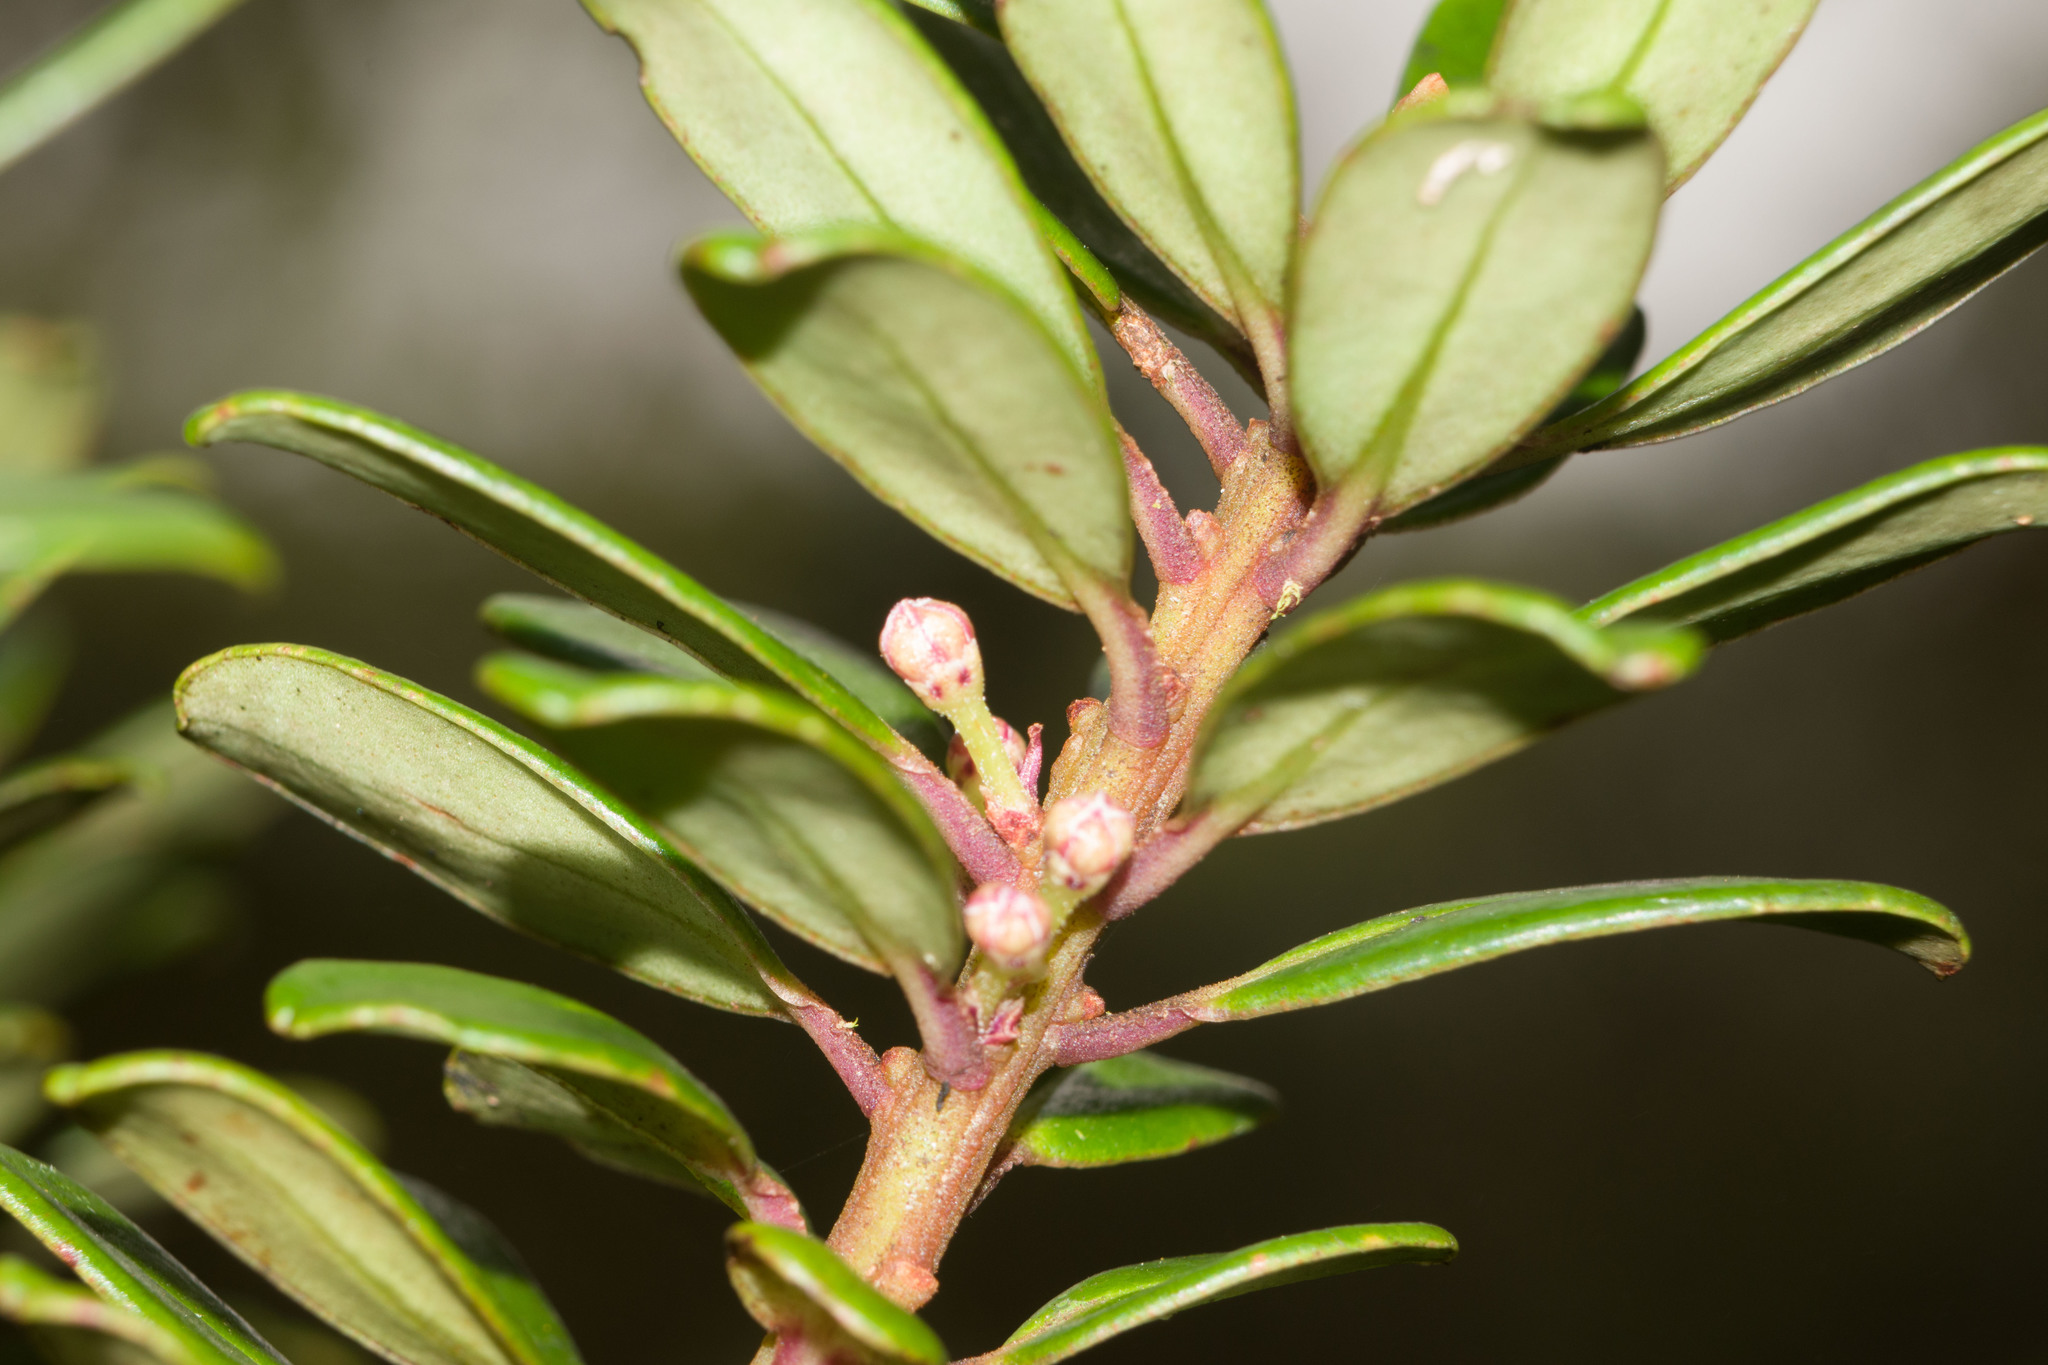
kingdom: Plantae
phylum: Tracheophyta
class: Magnoliopsida
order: Ericales
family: Primulaceae
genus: Myrsine
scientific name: Myrsine sandwicensis
